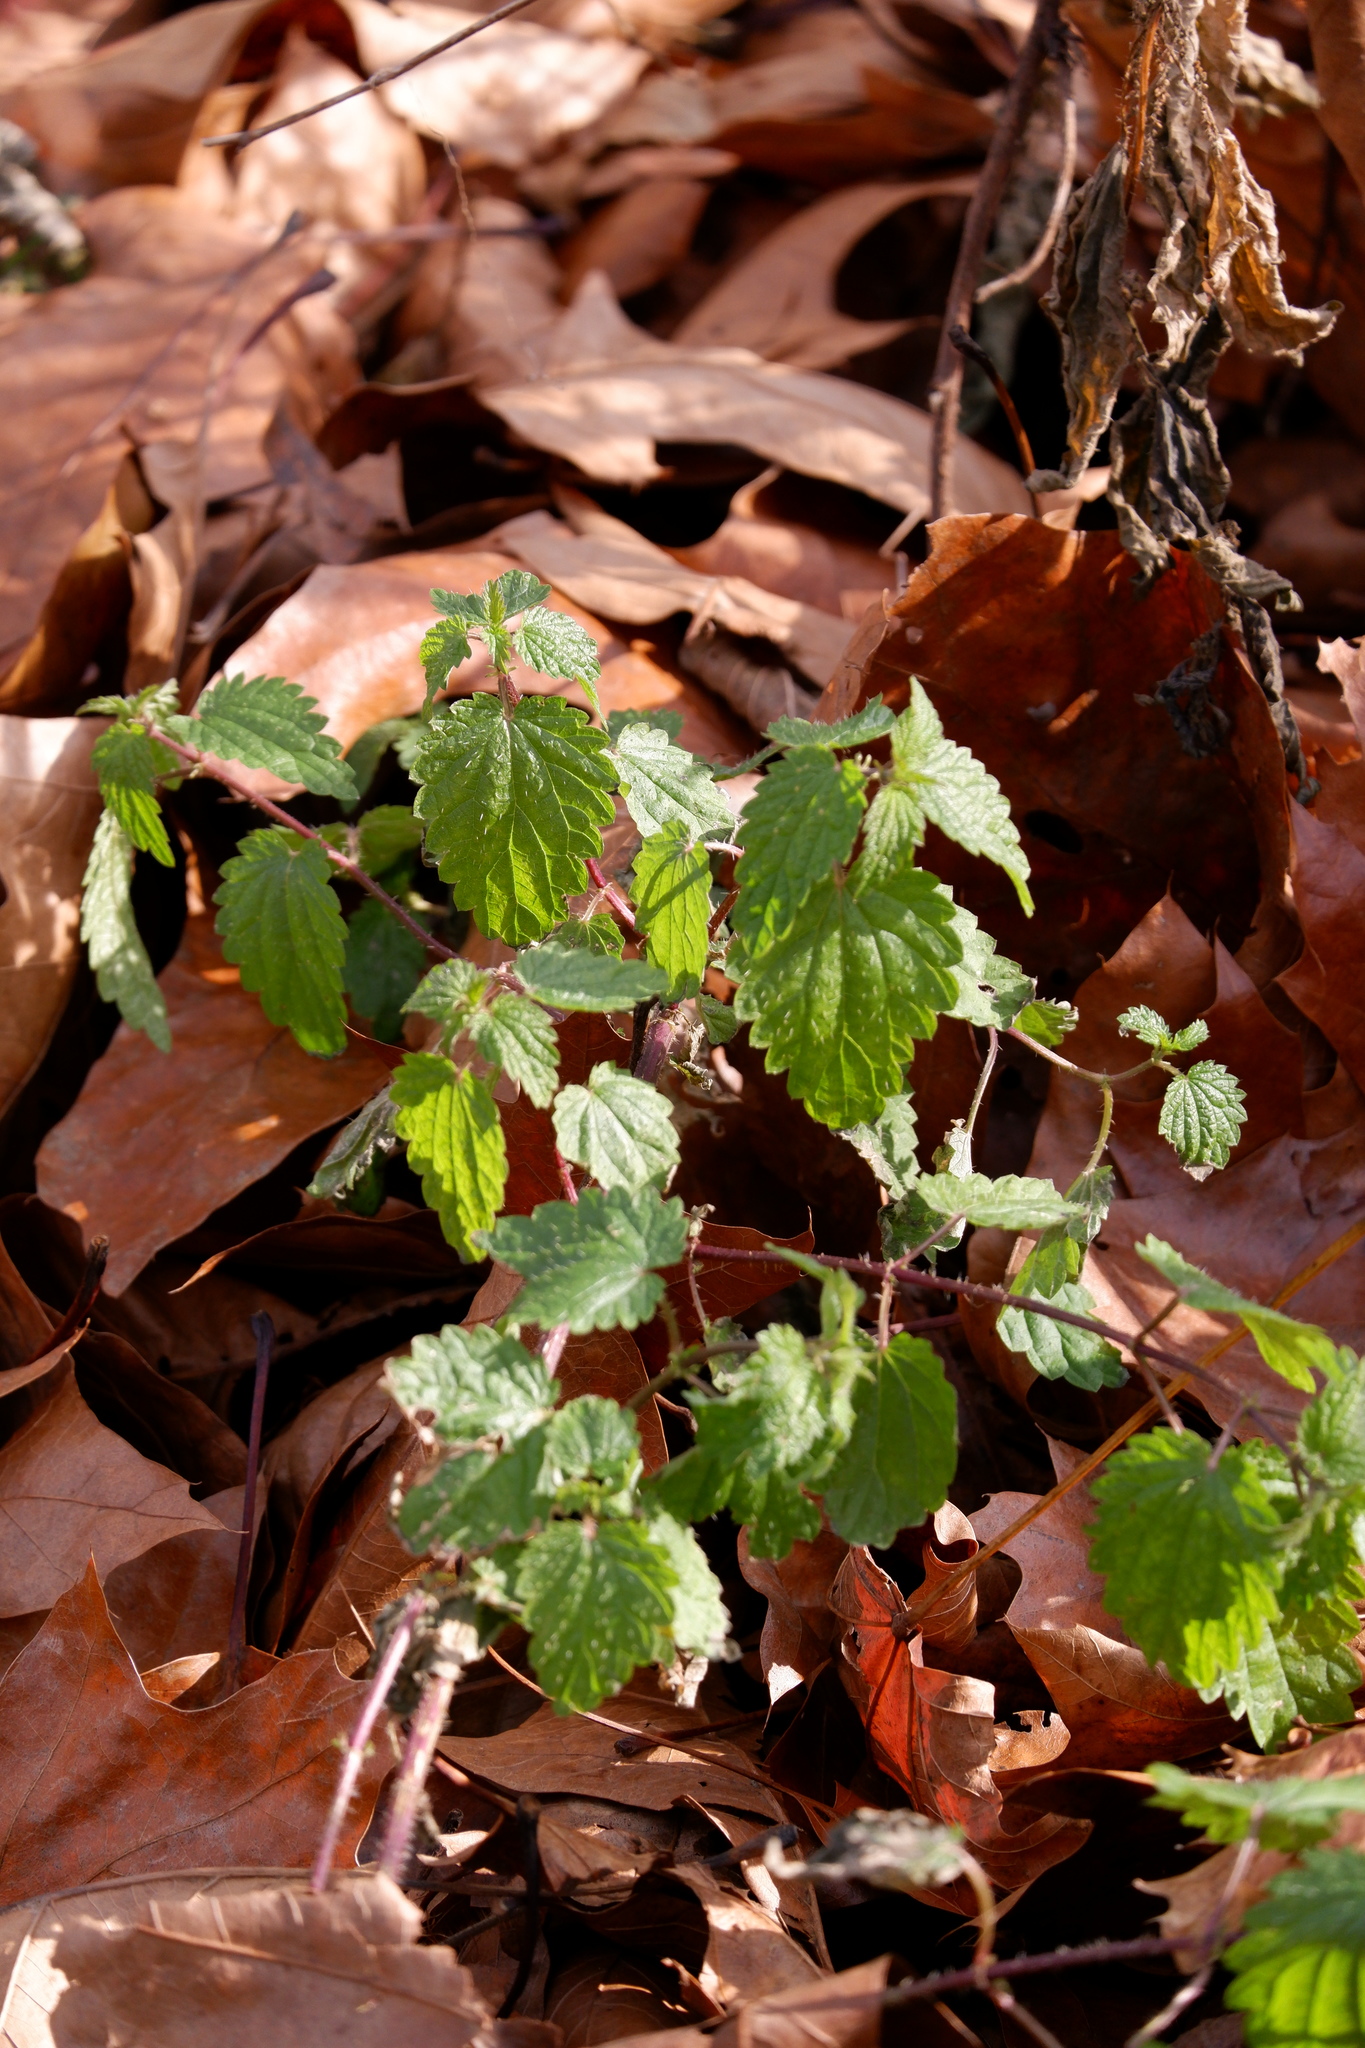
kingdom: Plantae
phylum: Tracheophyta
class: Magnoliopsida
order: Rosales
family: Urticaceae
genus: Urtica
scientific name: Urtica dioica
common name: Common nettle
